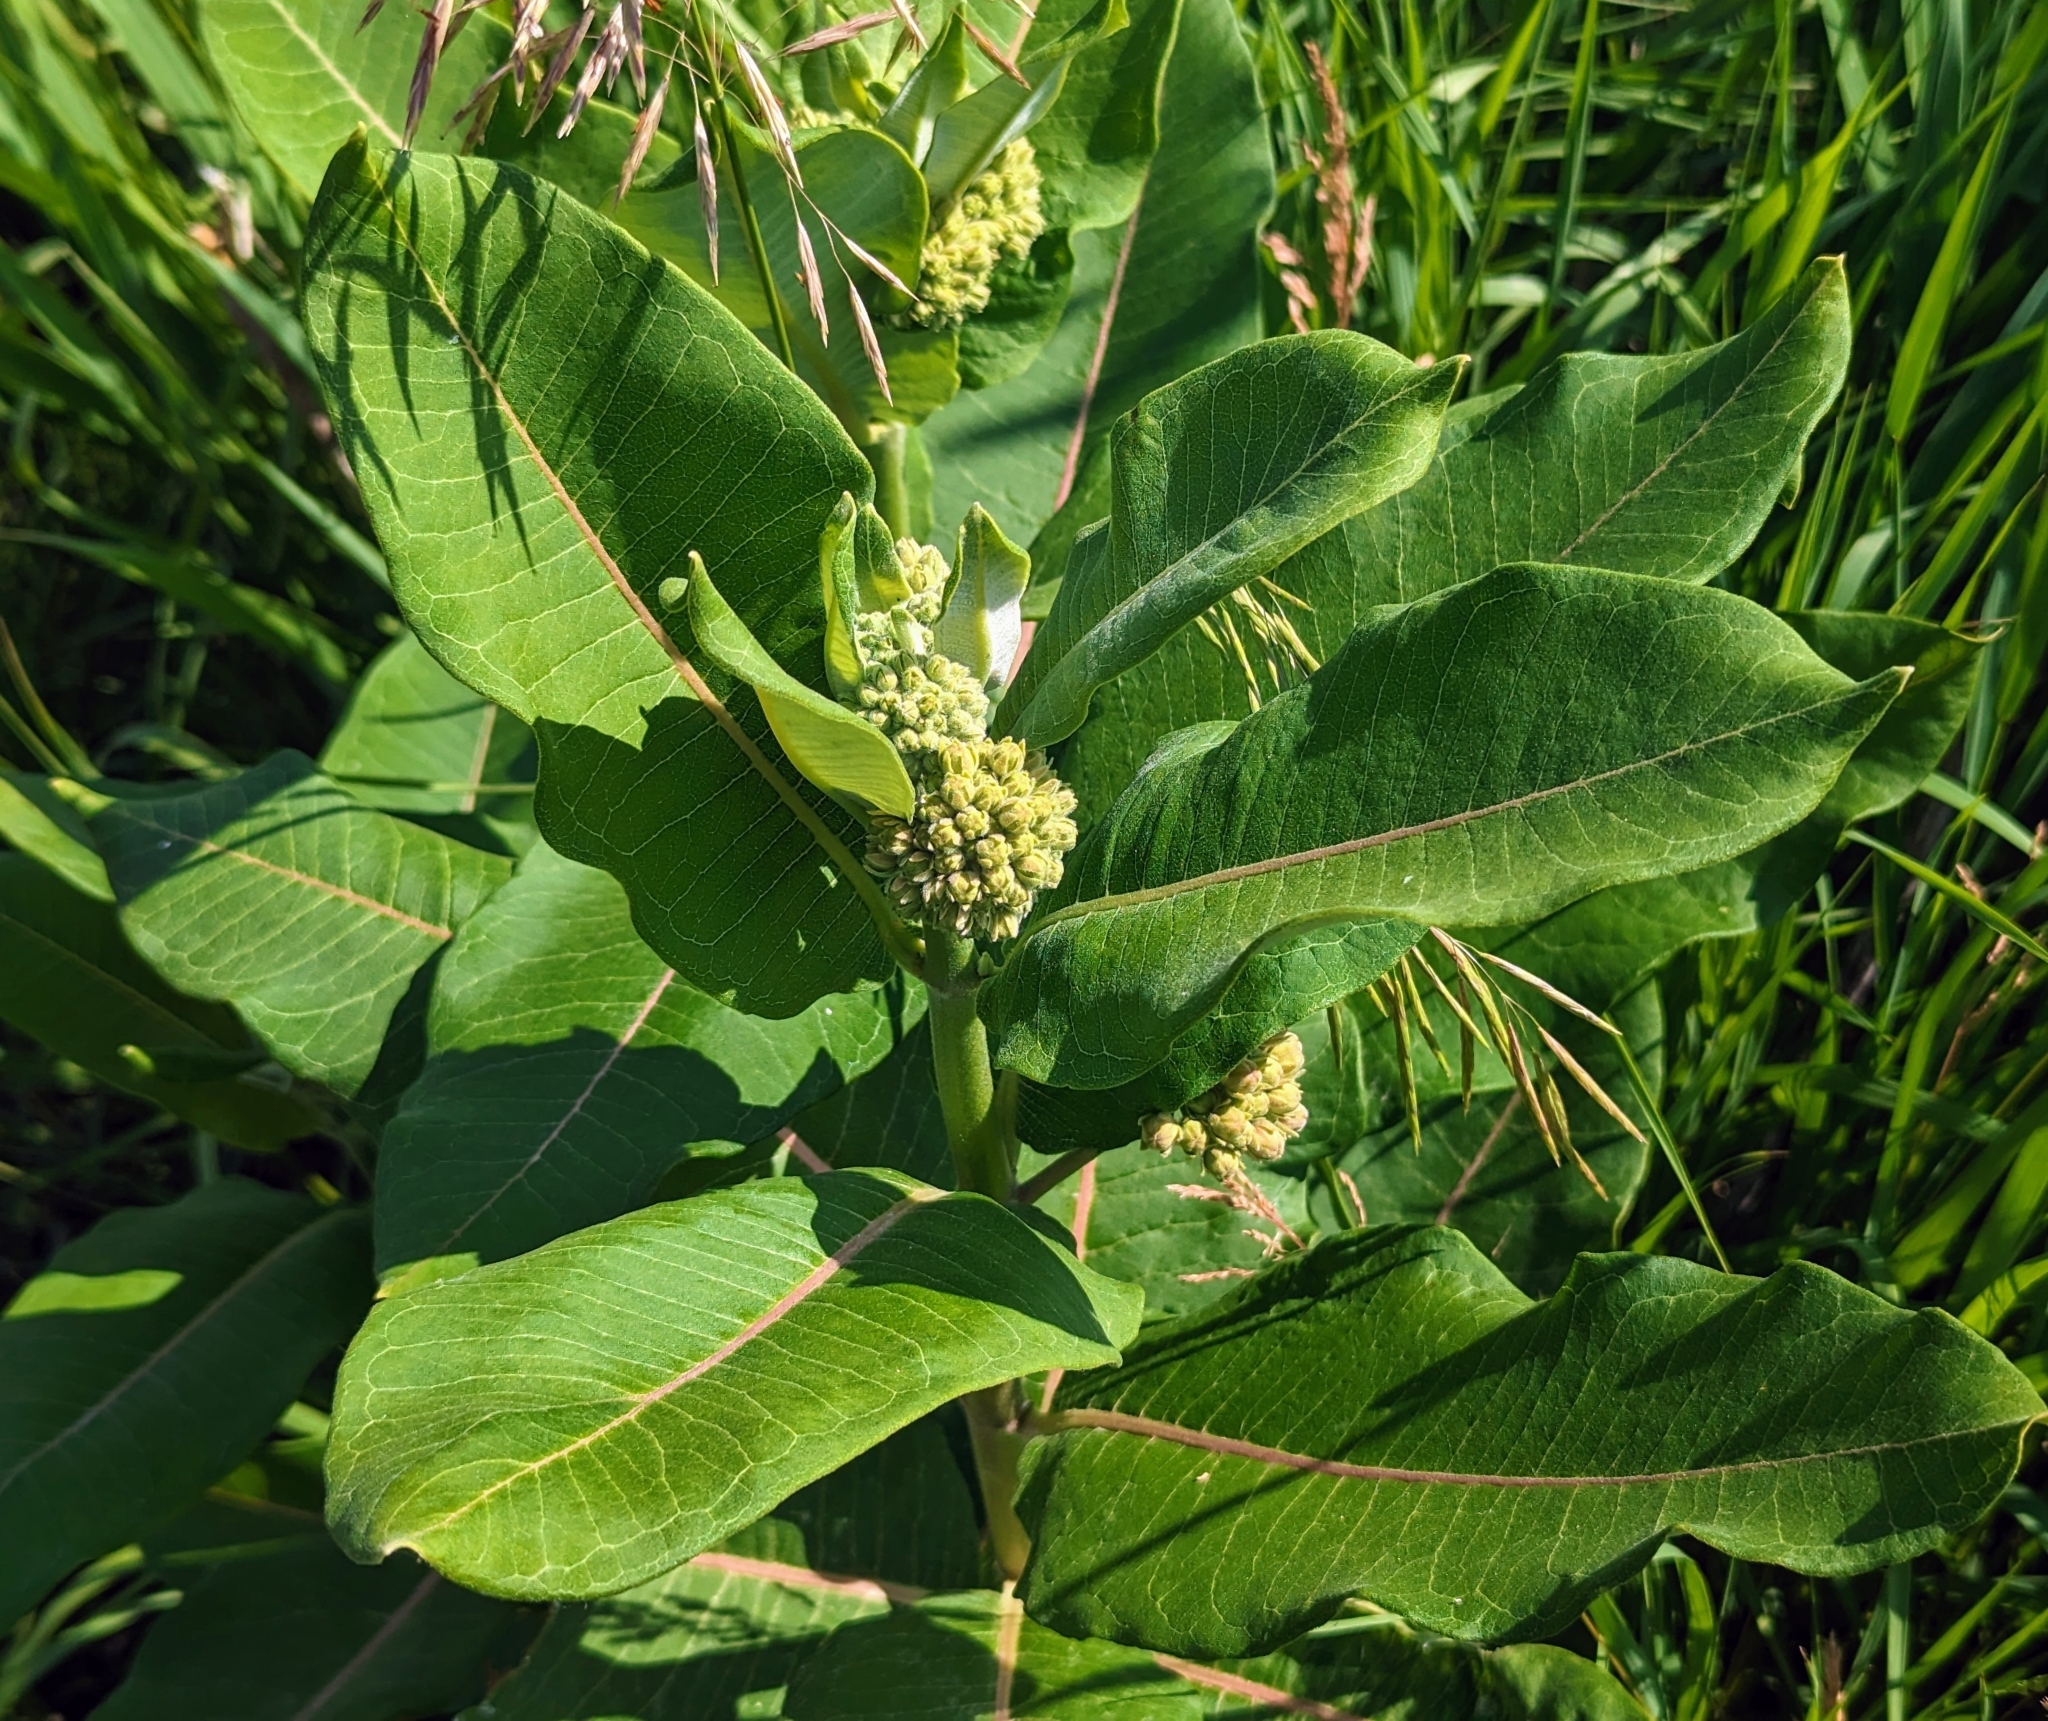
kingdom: Plantae
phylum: Tracheophyta
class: Magnoliopsida
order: Gentianales
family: Apocynaceae
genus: Asclepias
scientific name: Asclepias syriaca
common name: Common milkweed
